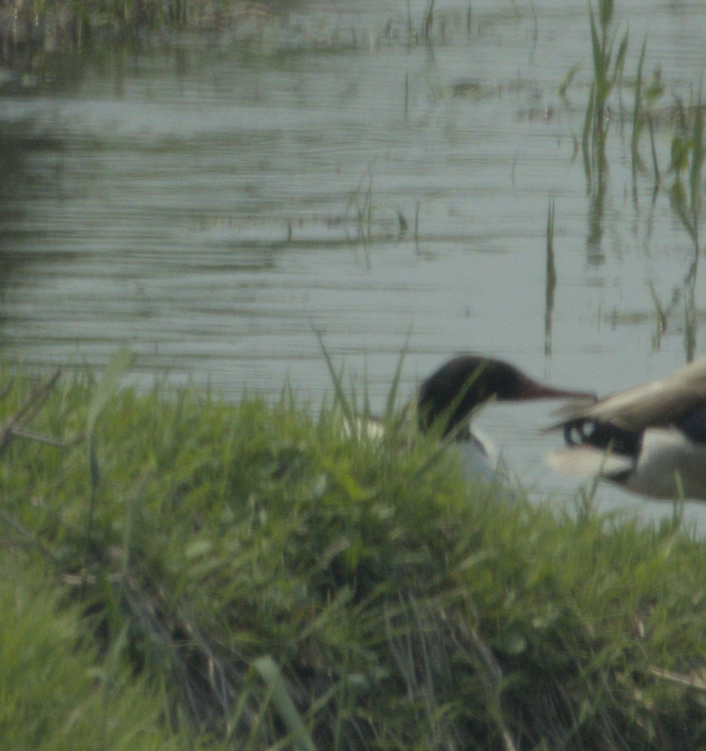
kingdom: Animalia
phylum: Chordata
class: Aves
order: Anseriformes
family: Anatidae
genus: Mergus
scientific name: Mergus merganser
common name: Common merganser
